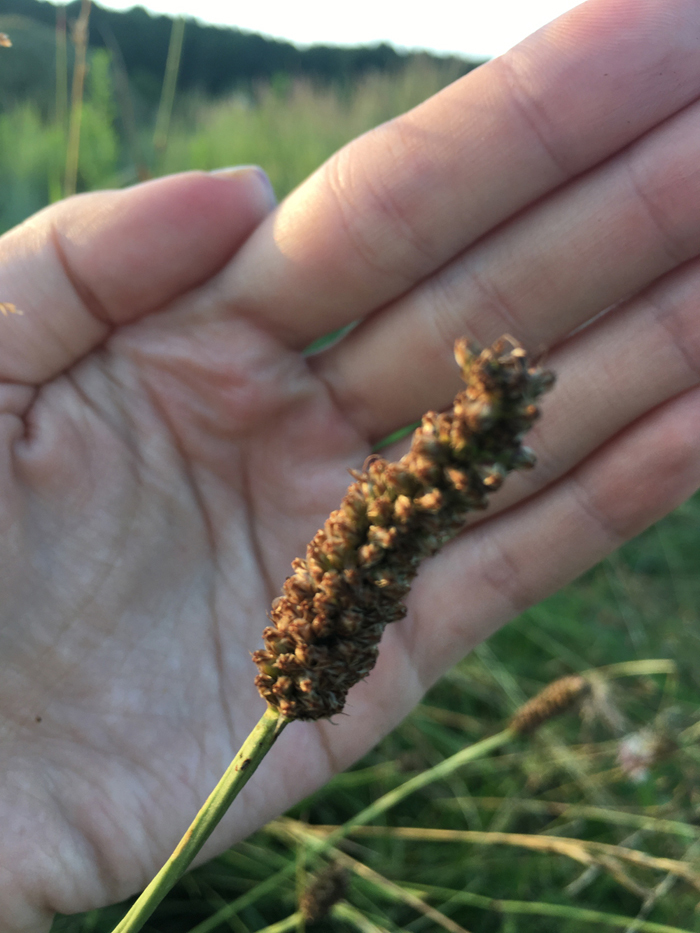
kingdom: Plantae
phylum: Tracheophyta
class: Magnoliopsida
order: Lamiales
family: Plantaginaceae
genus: Plantago
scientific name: Plantago lanceolata
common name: Ribwort plantain
